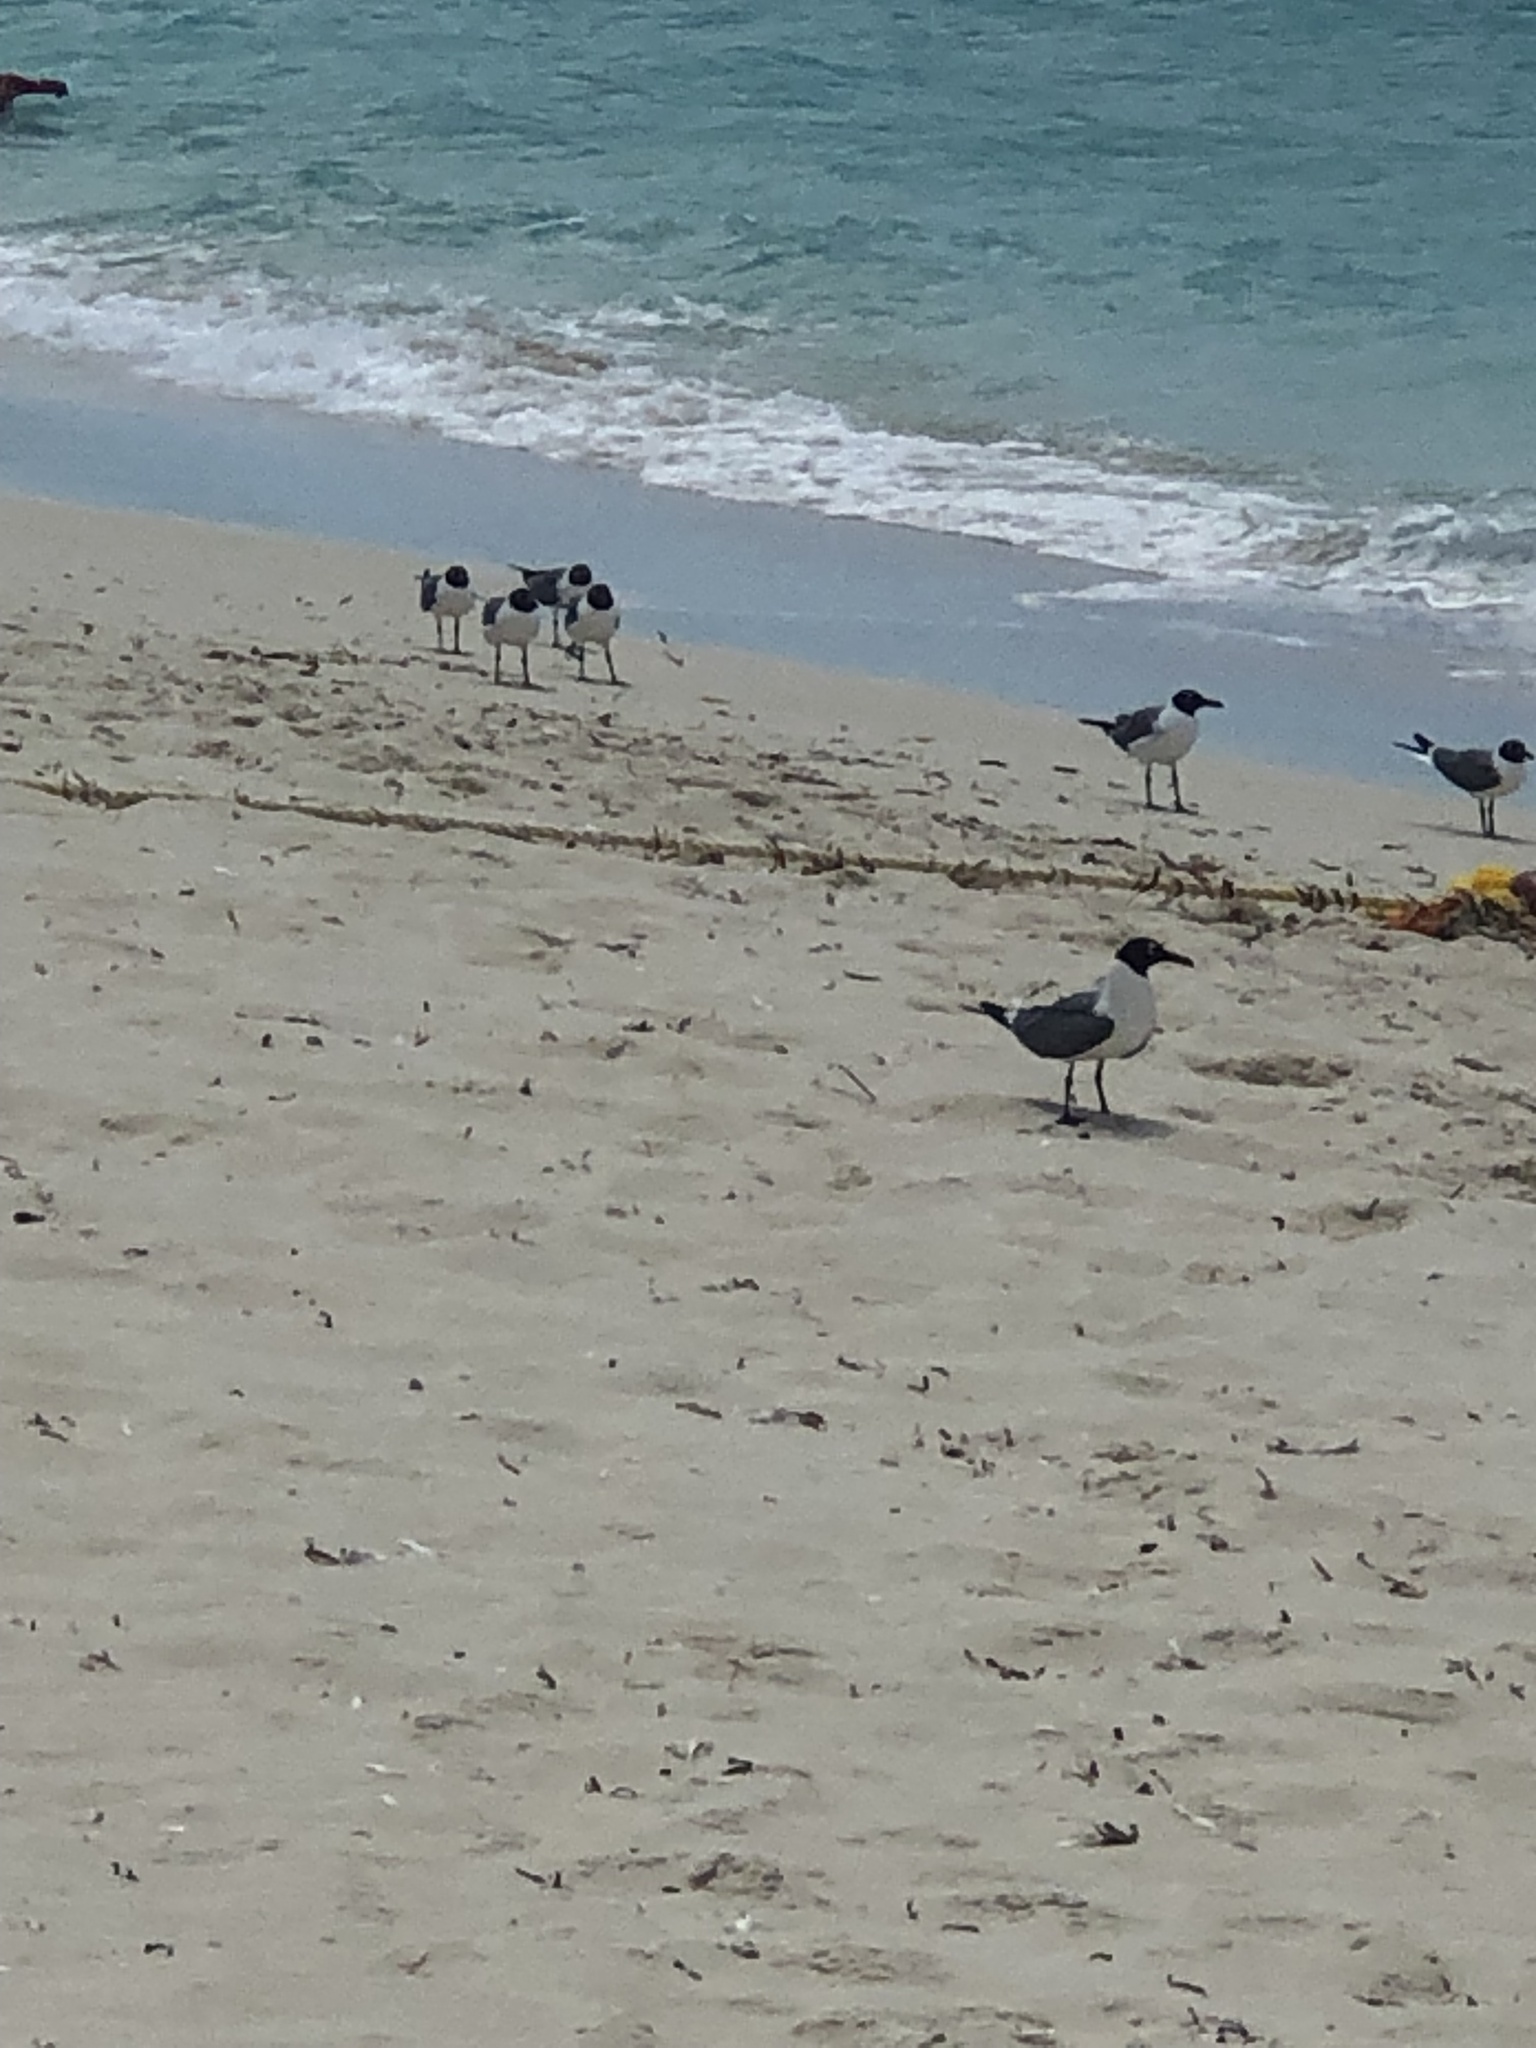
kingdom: Animalia
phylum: Chordata
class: Aves
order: Charadriiformes
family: Laridae
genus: Leucophaeus
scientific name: Leucophaeus atricilla
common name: Laughing gull
